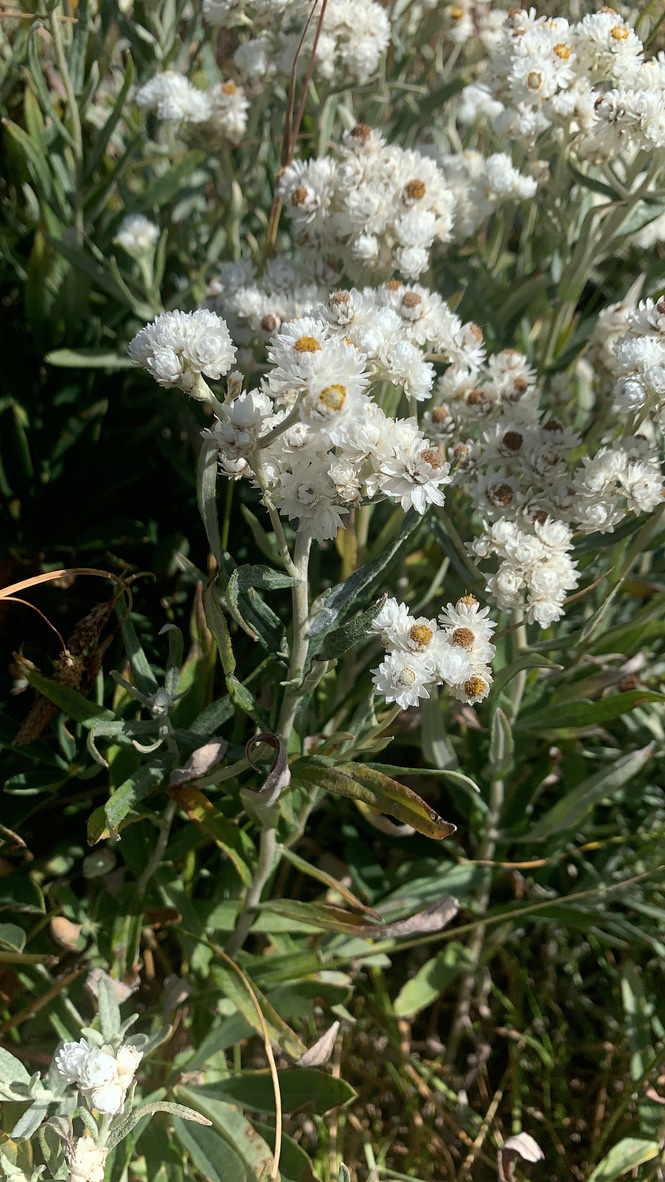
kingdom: Plantae
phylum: Tracheophyta
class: Magnoliopsida
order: Asterales
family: Asteraceae
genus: Anaphalis
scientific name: Anaphalis margaritacea
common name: Pearly everlasting
